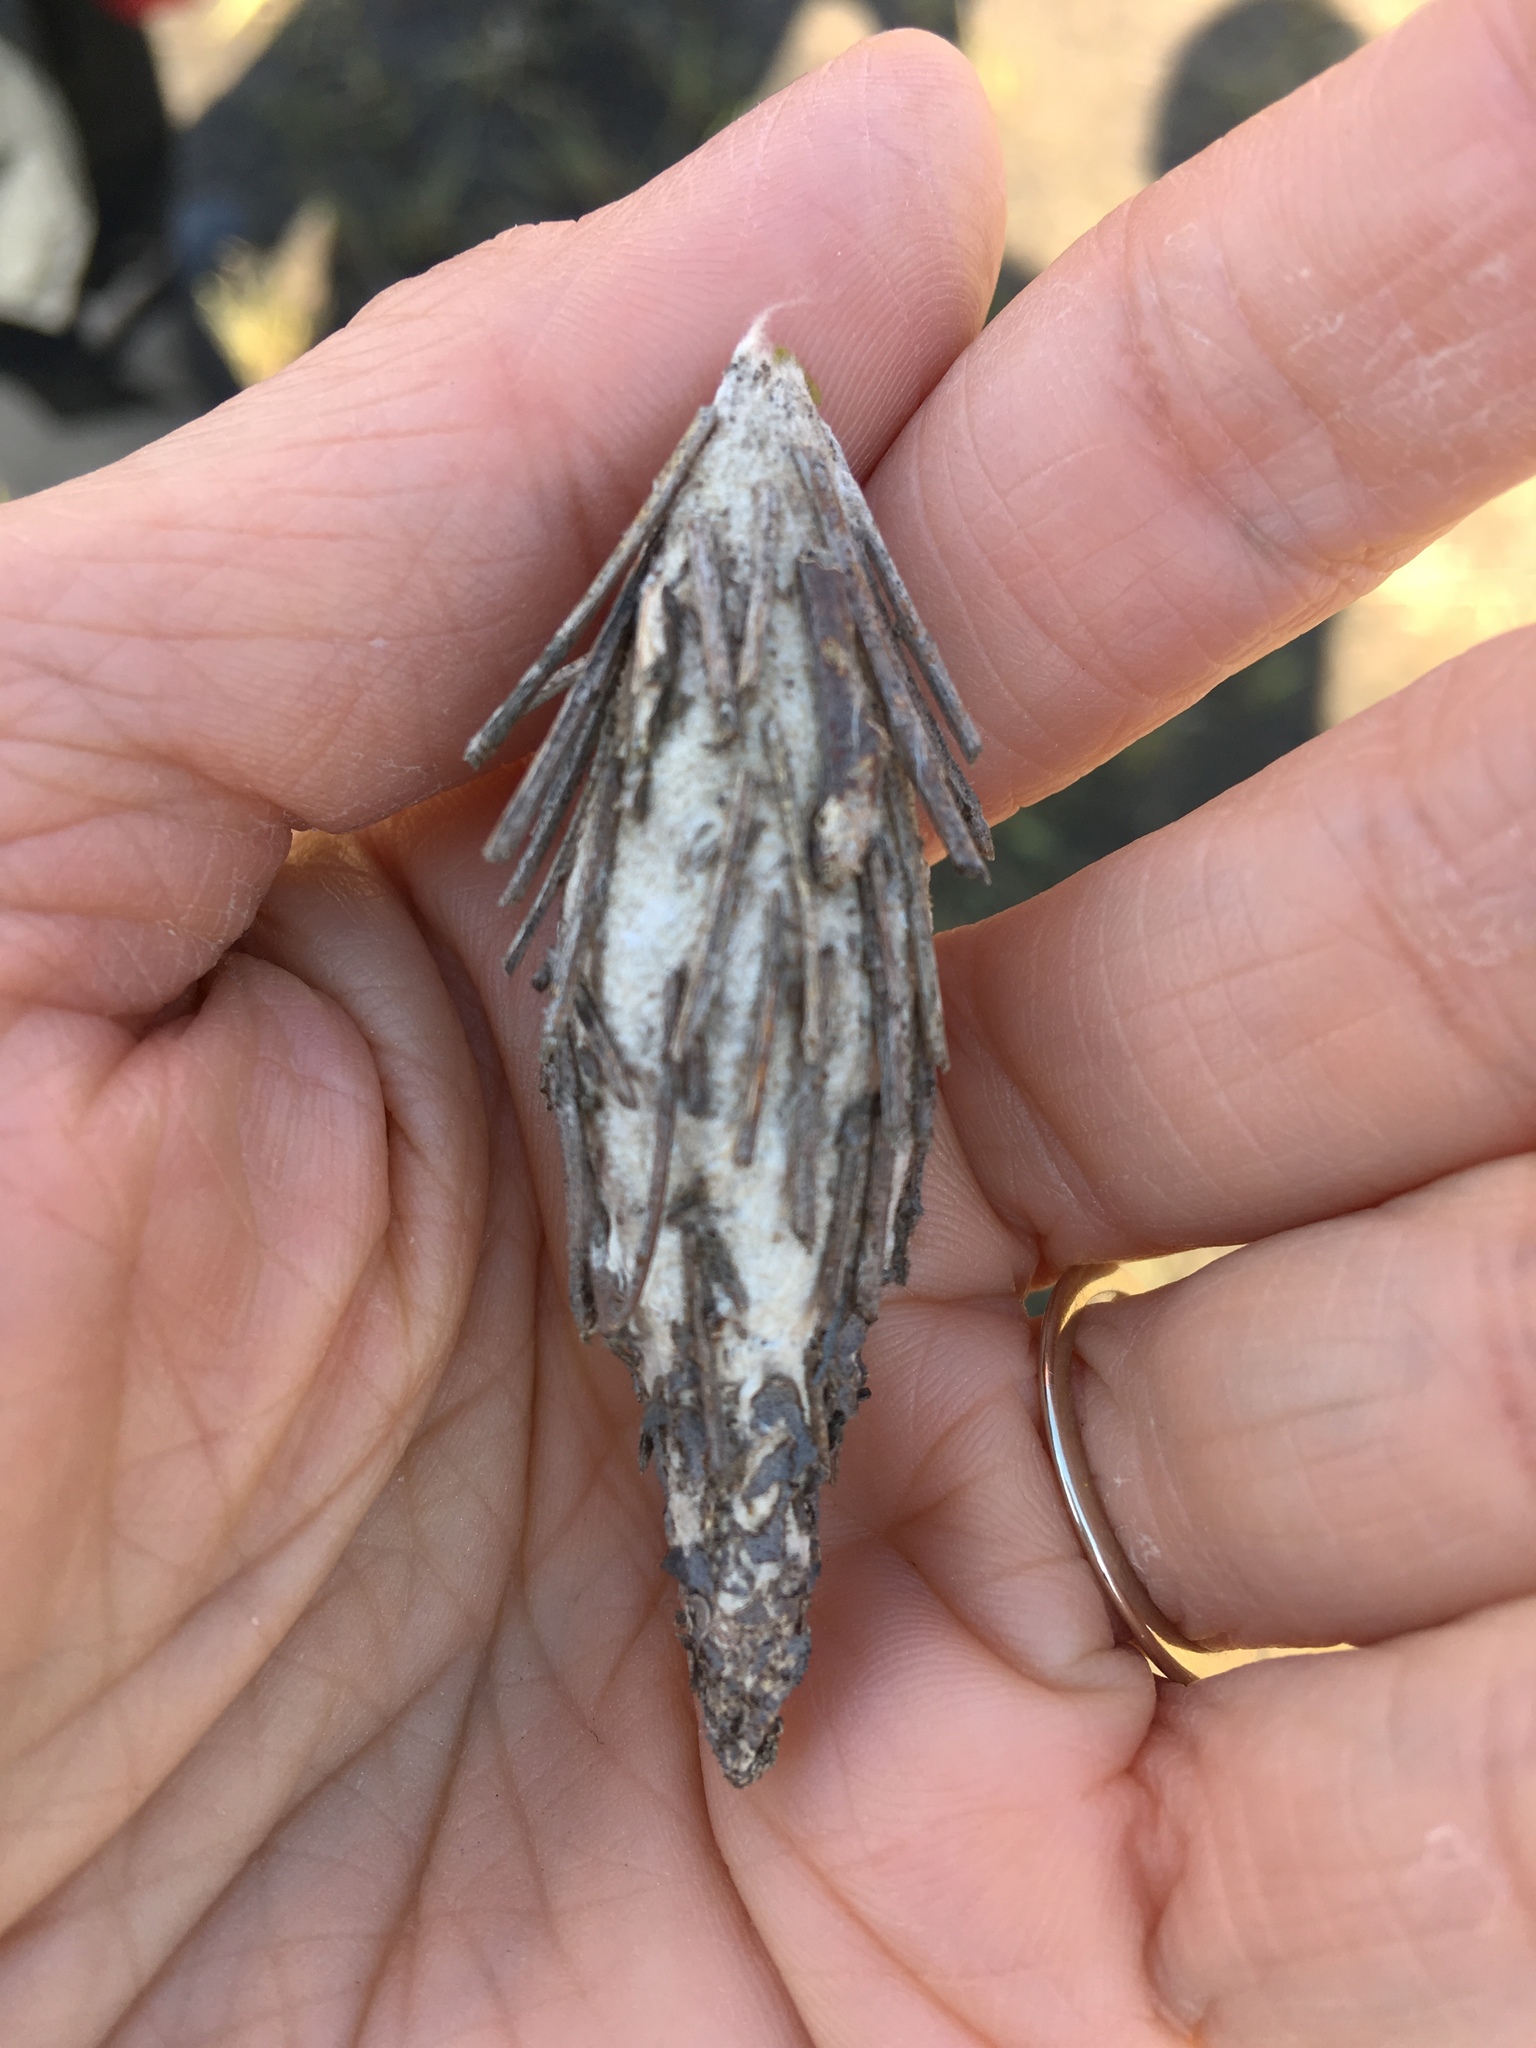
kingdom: Animalia
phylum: Arthropoda
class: Insecta
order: Lepidoptera
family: Psychidae
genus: Thyridopteryx
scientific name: Thyridopteryx ephemeraeformis
